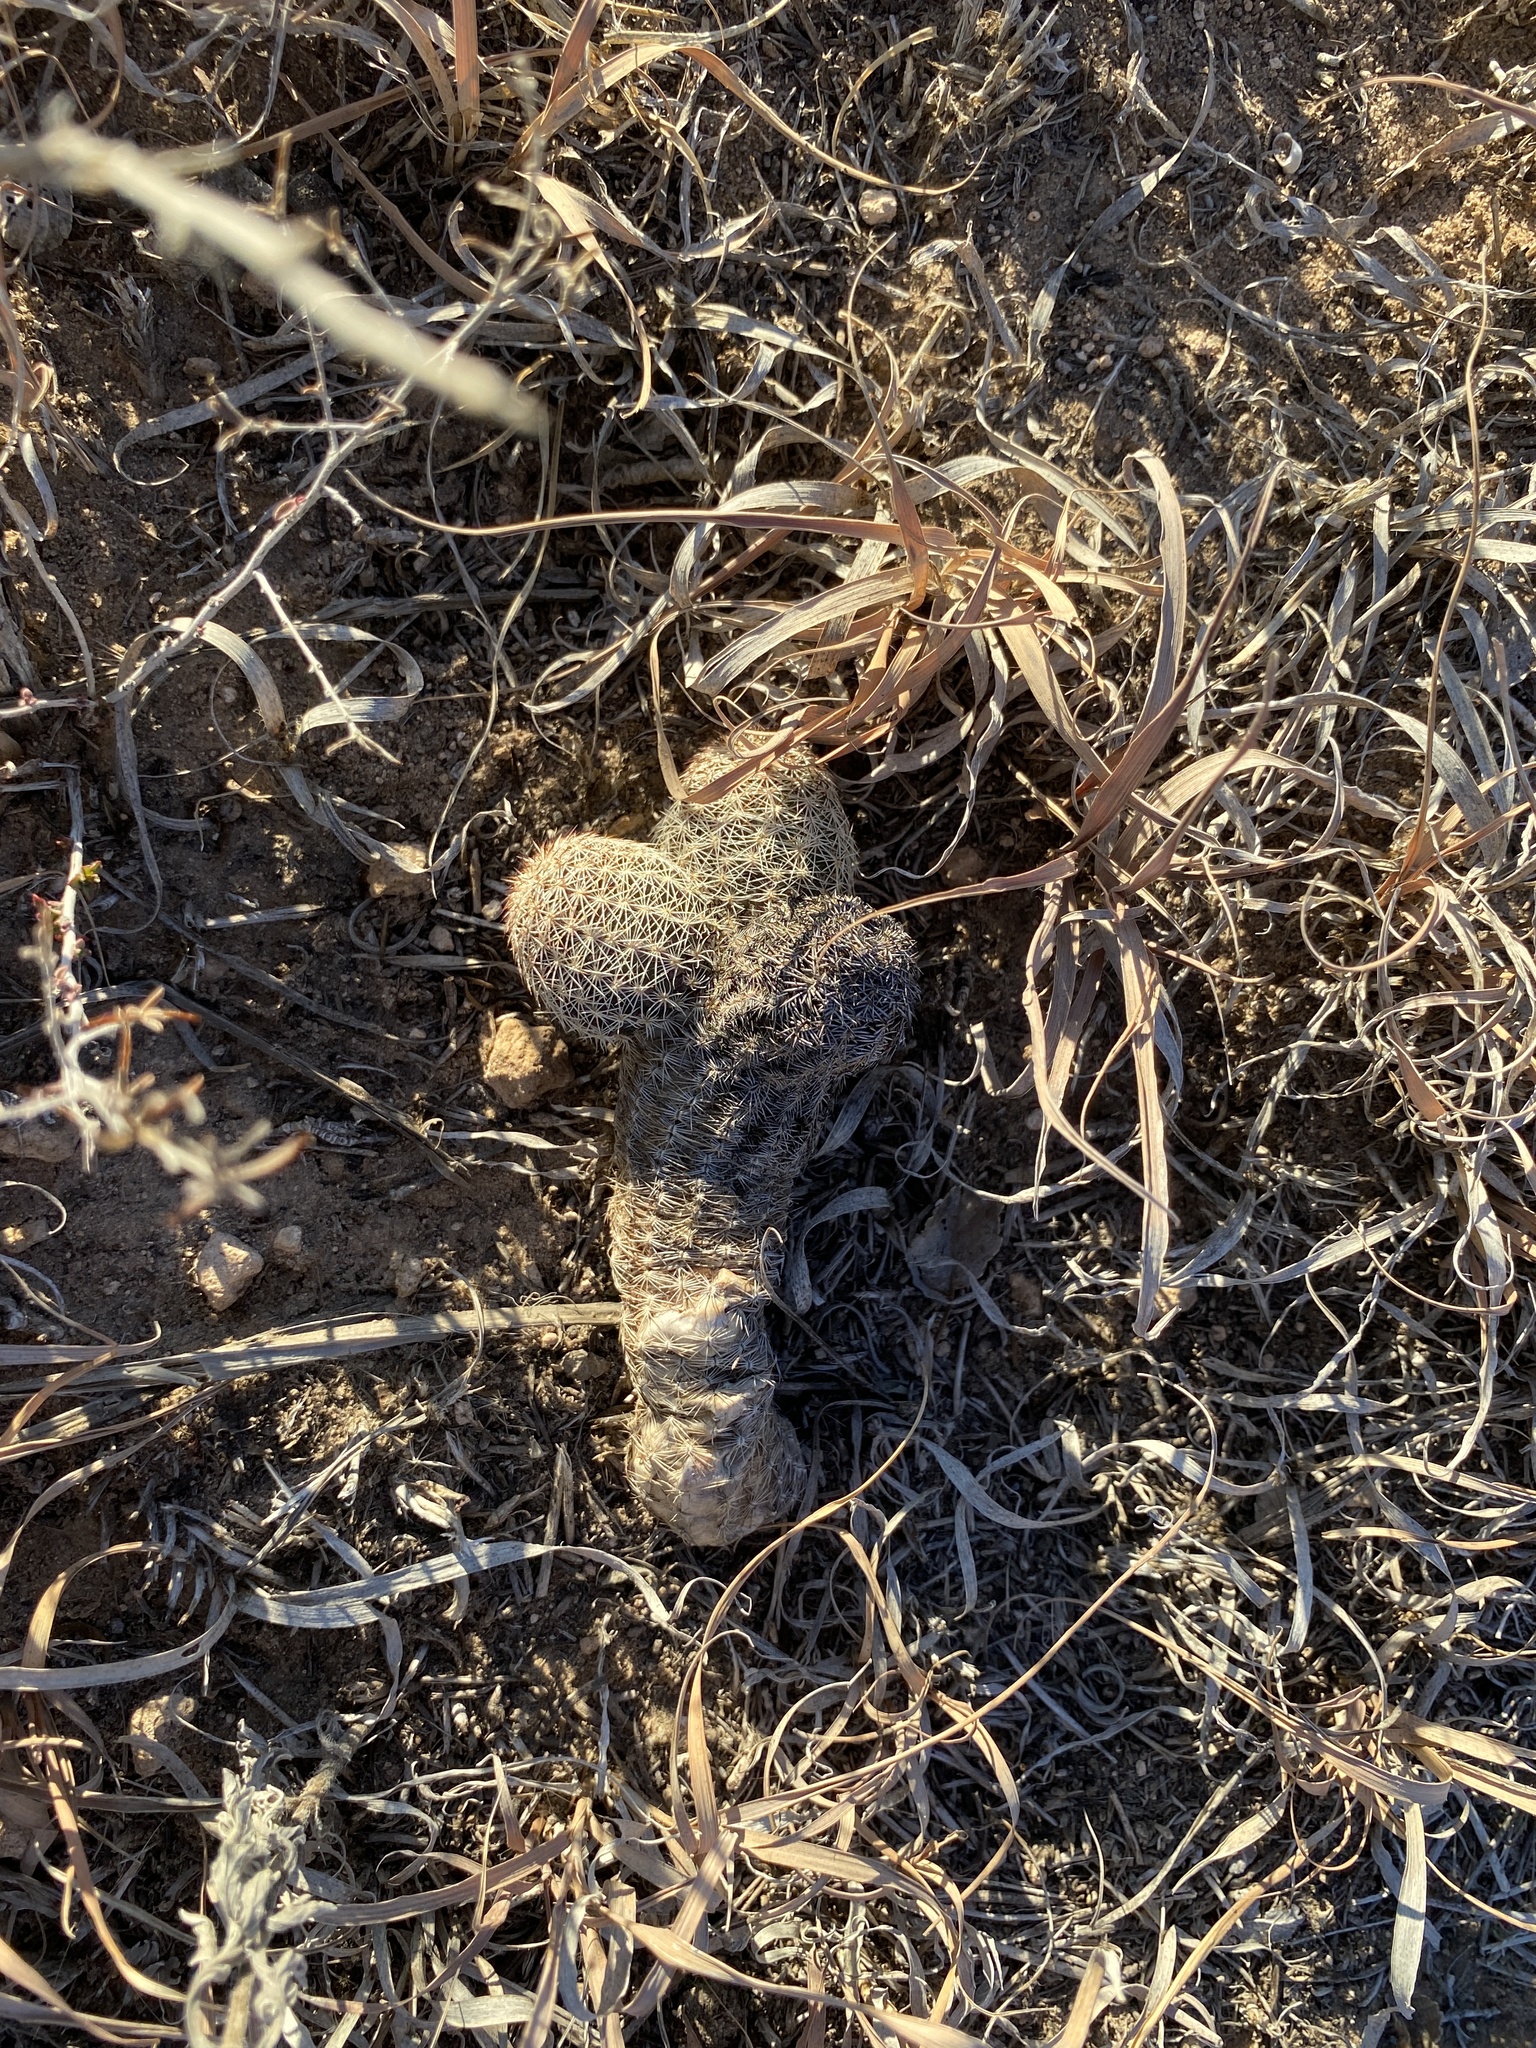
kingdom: Plantae
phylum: Tracheophyta
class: Magnoliopsida
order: Caryophyllales
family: Cactaceae
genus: Echinocereus
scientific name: Echinocereus reichenbachii
